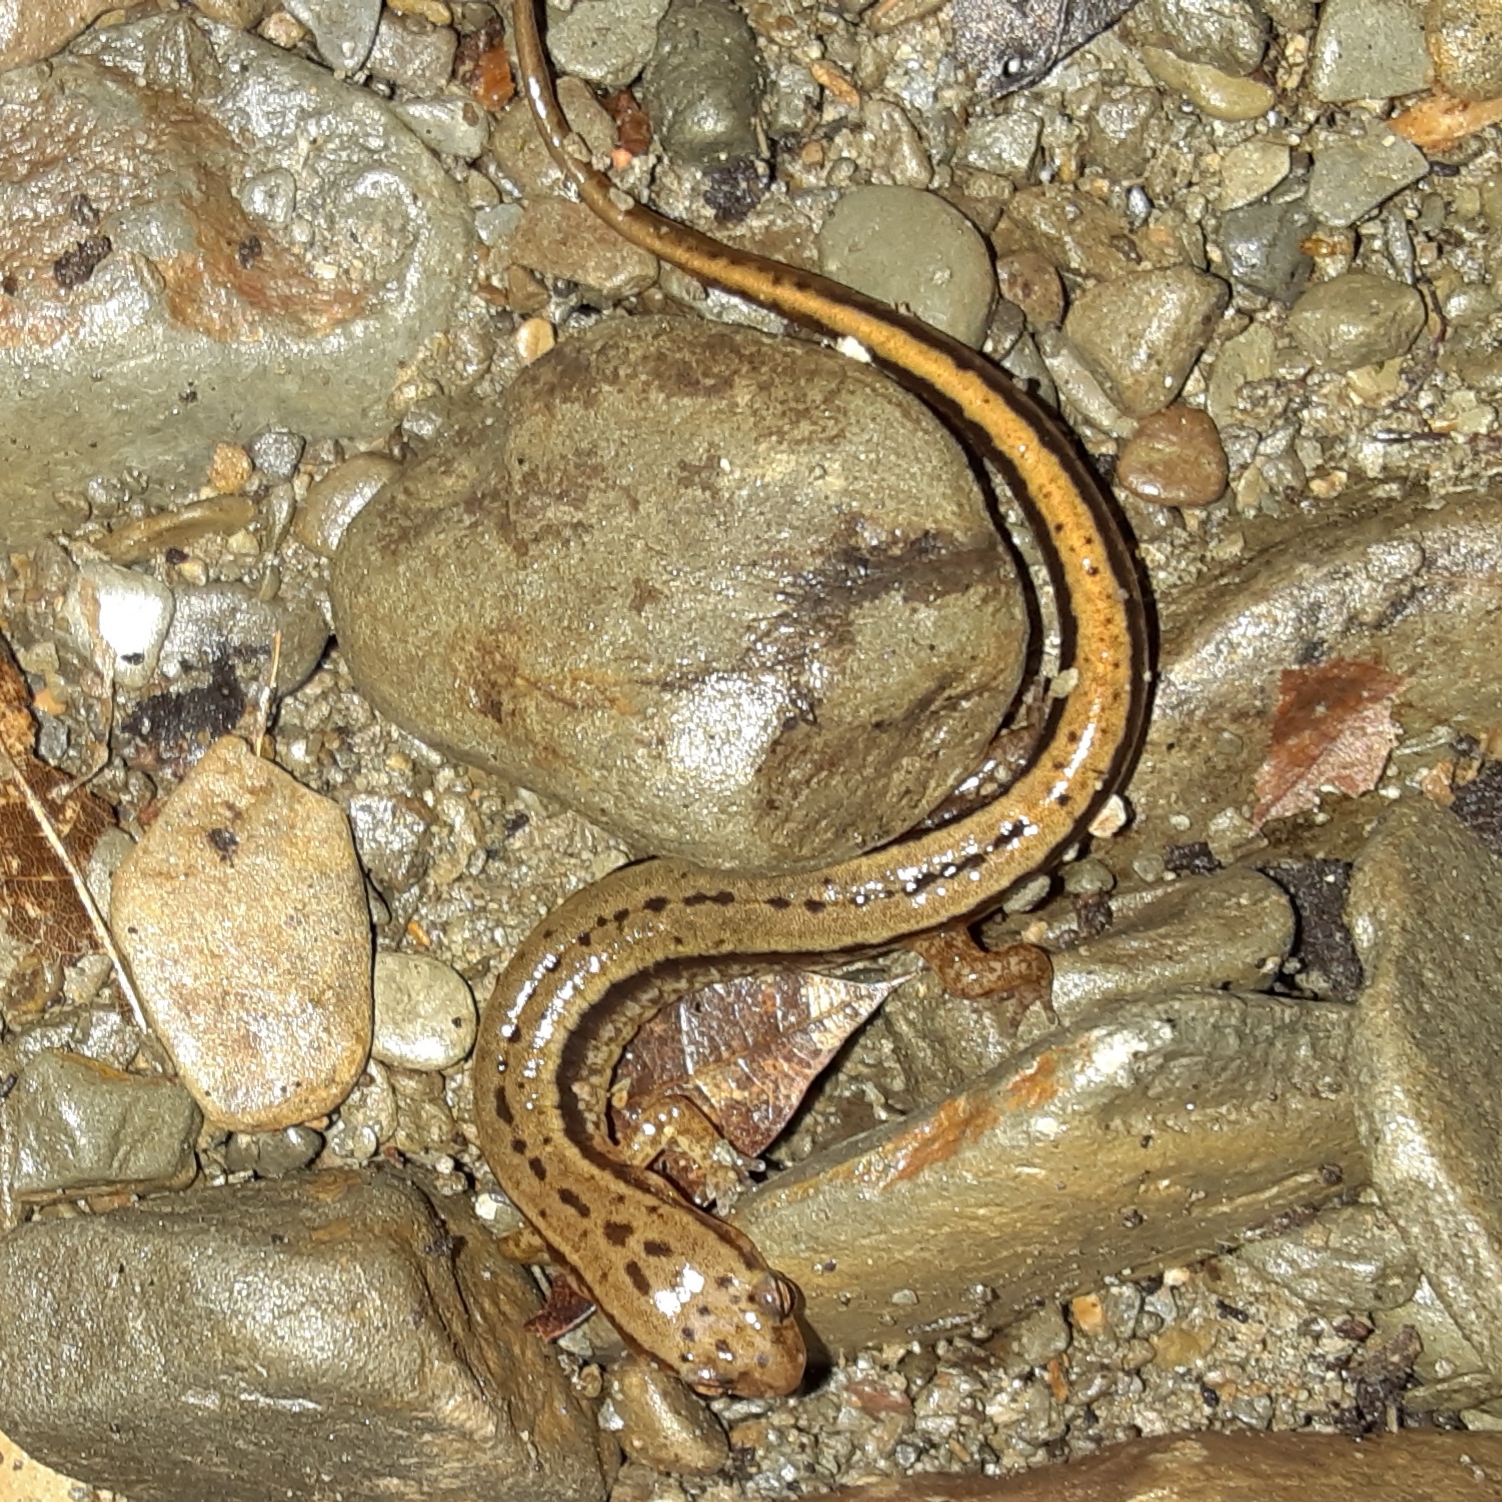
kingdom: Animalia
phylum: Chordata
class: Amphibia
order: Caudata
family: Plethodontidae
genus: Eurycea
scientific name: Eurycea bislineata
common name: Northern two-lined salamander
